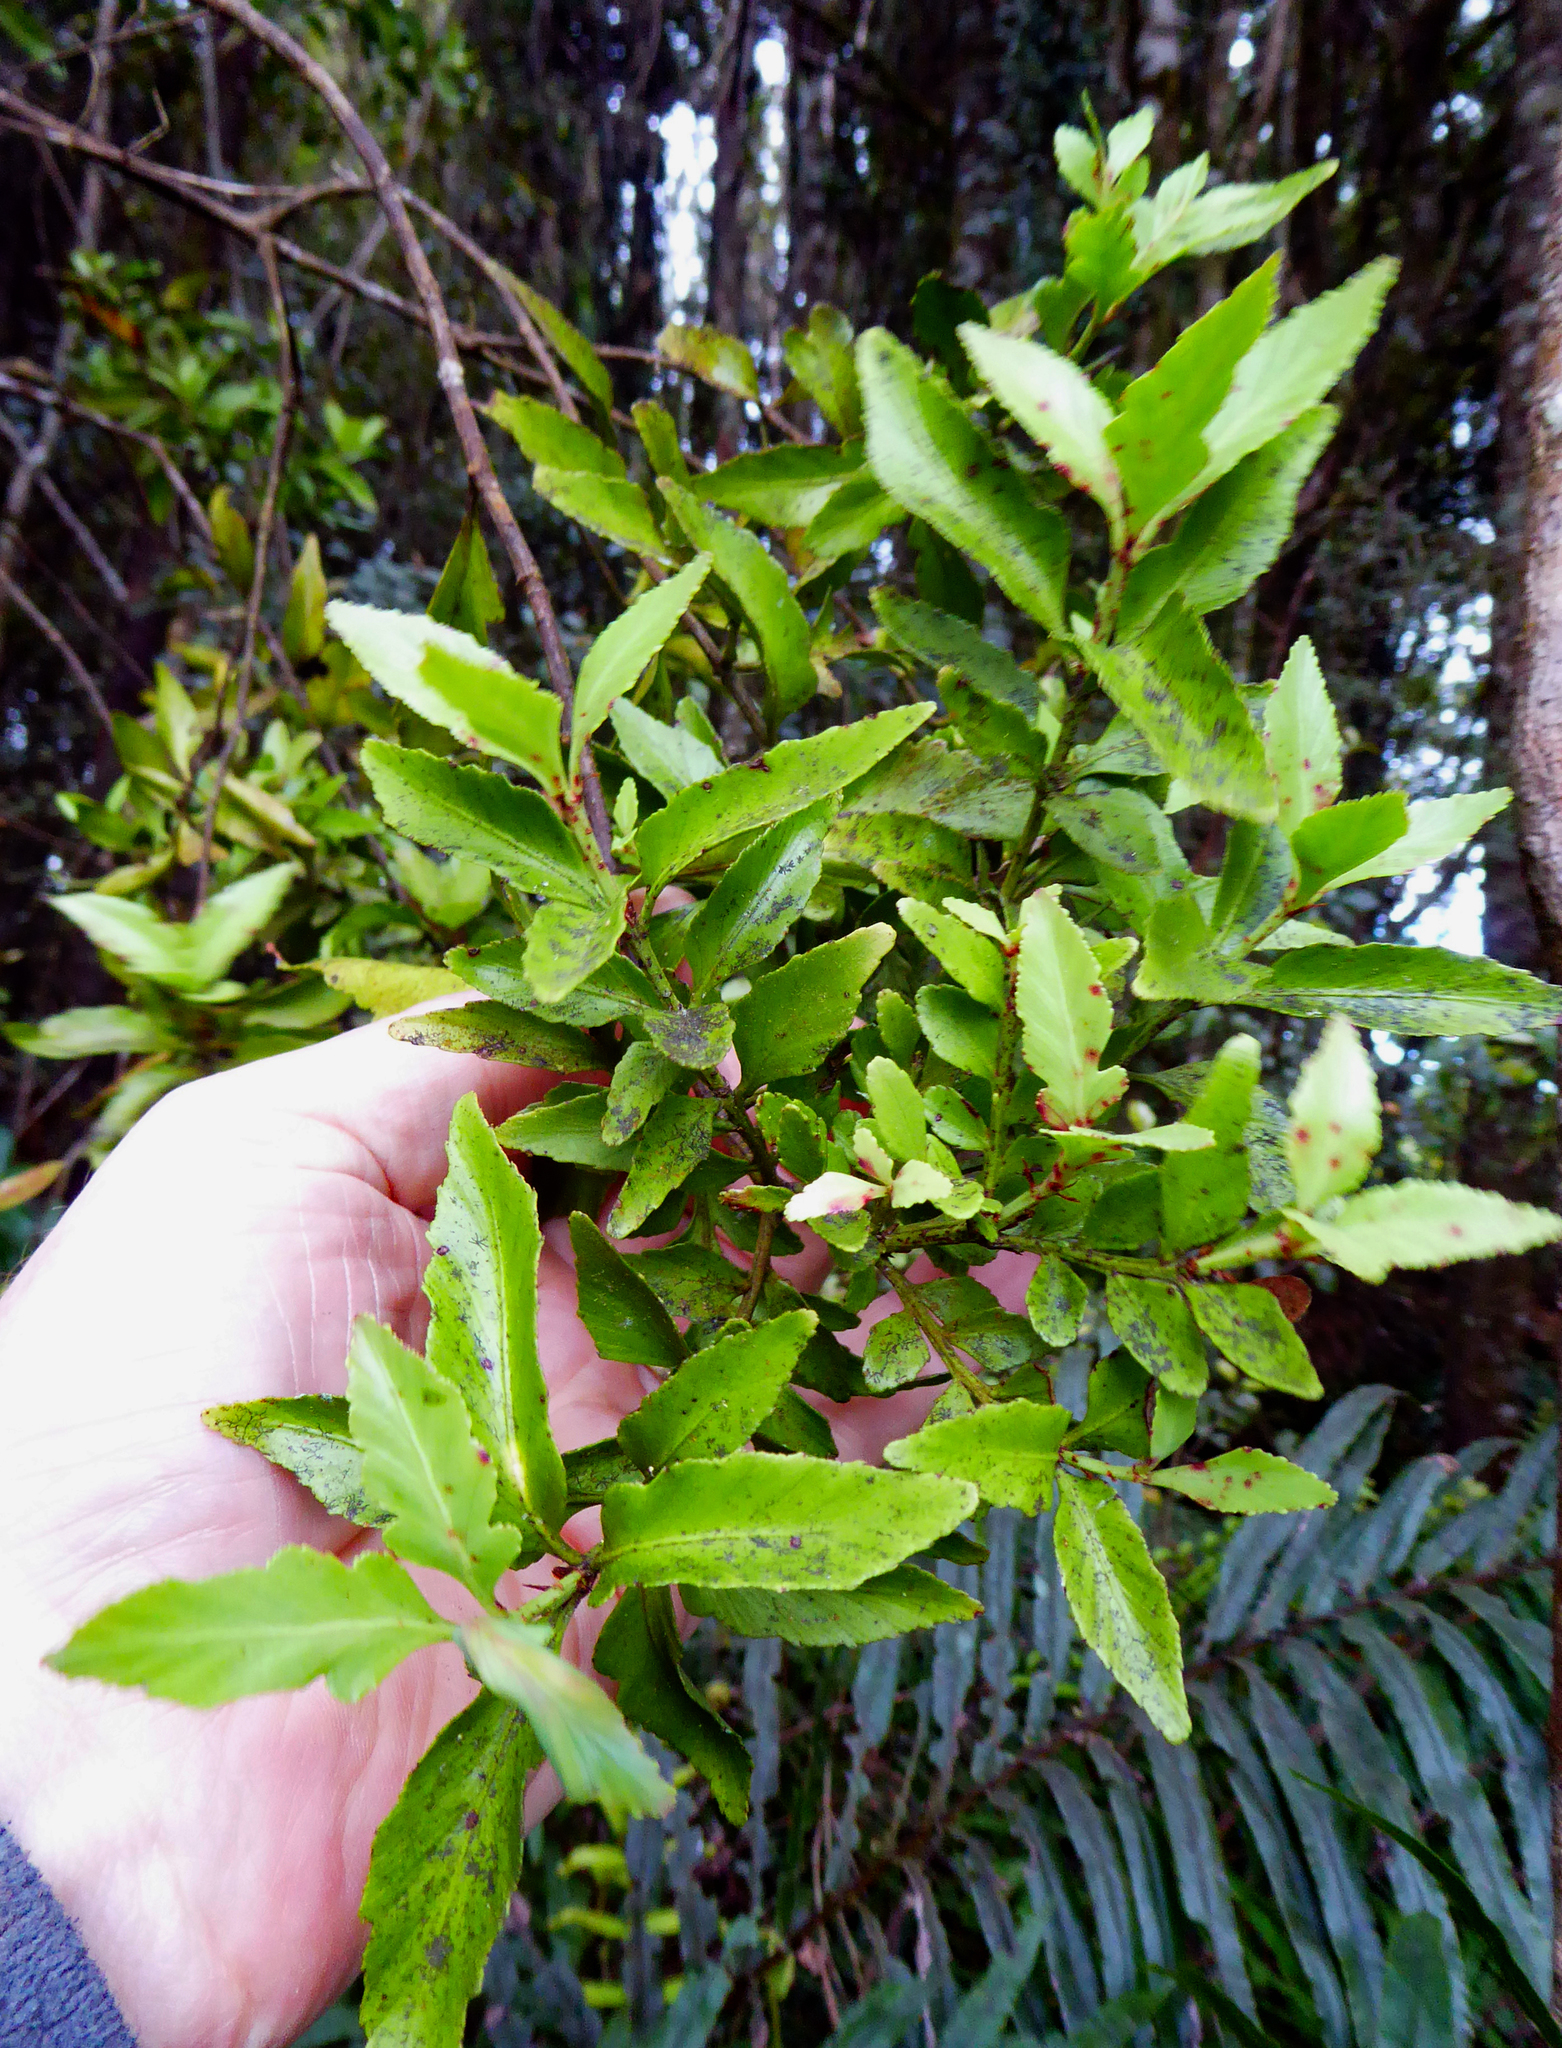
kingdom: Plantae
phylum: Tracheophyta
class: Pinopsida
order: Pinales
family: Phyllocladaceae
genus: Phyllocladus
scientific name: Phyllocladus trichomanoides
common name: Celery pine
